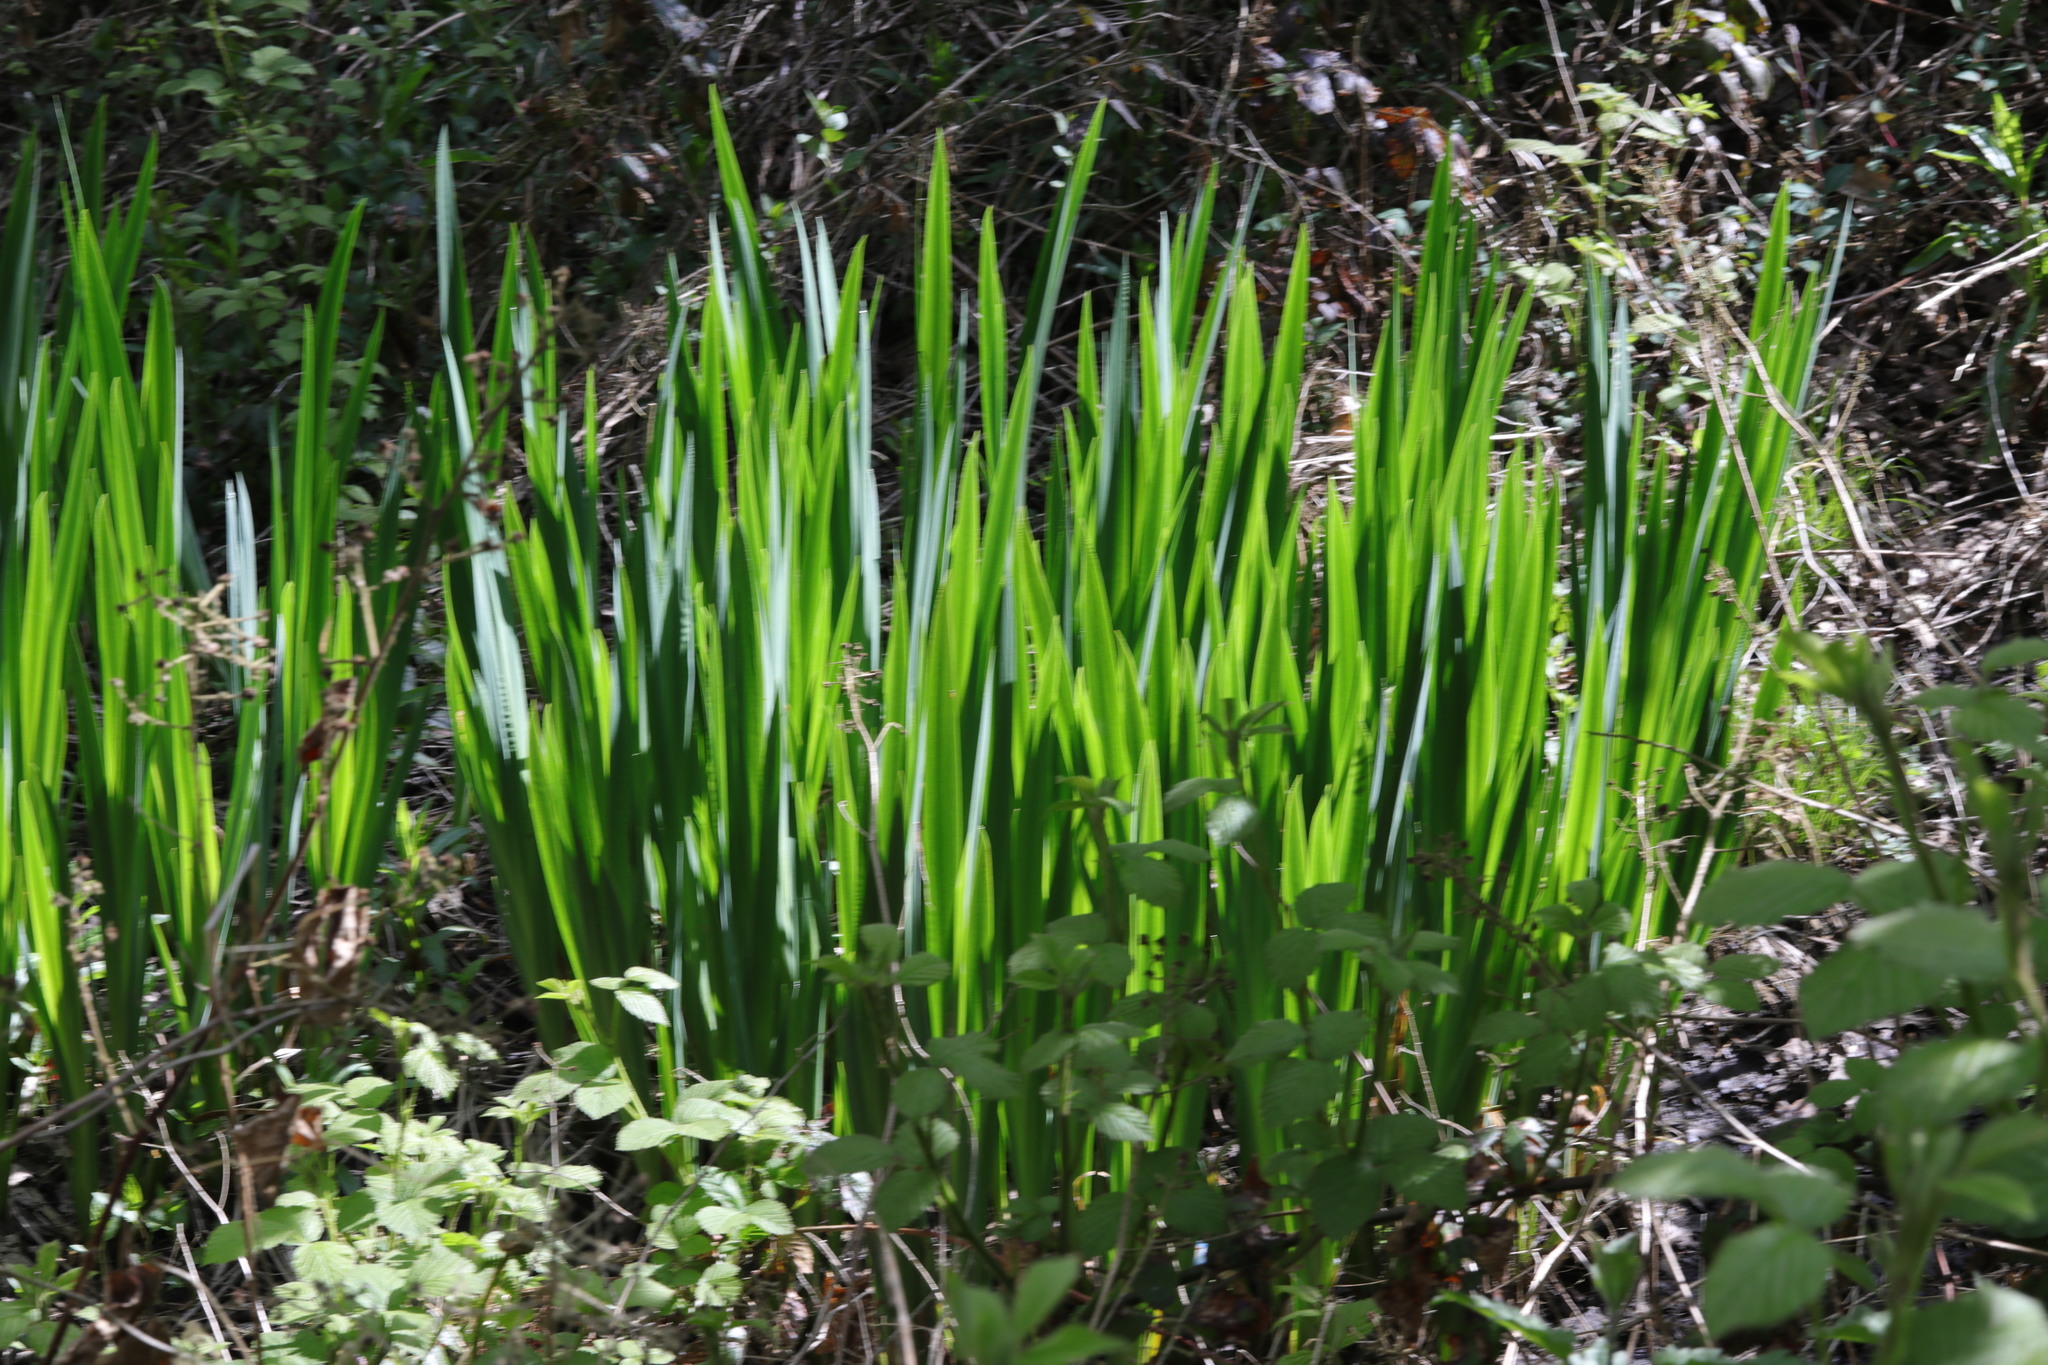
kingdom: Plantae
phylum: Tracheophyta
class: Liliopsida
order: Asparagales
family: Iridaceae
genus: Iris
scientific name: Iris pseudacorus
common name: Yellow flag
